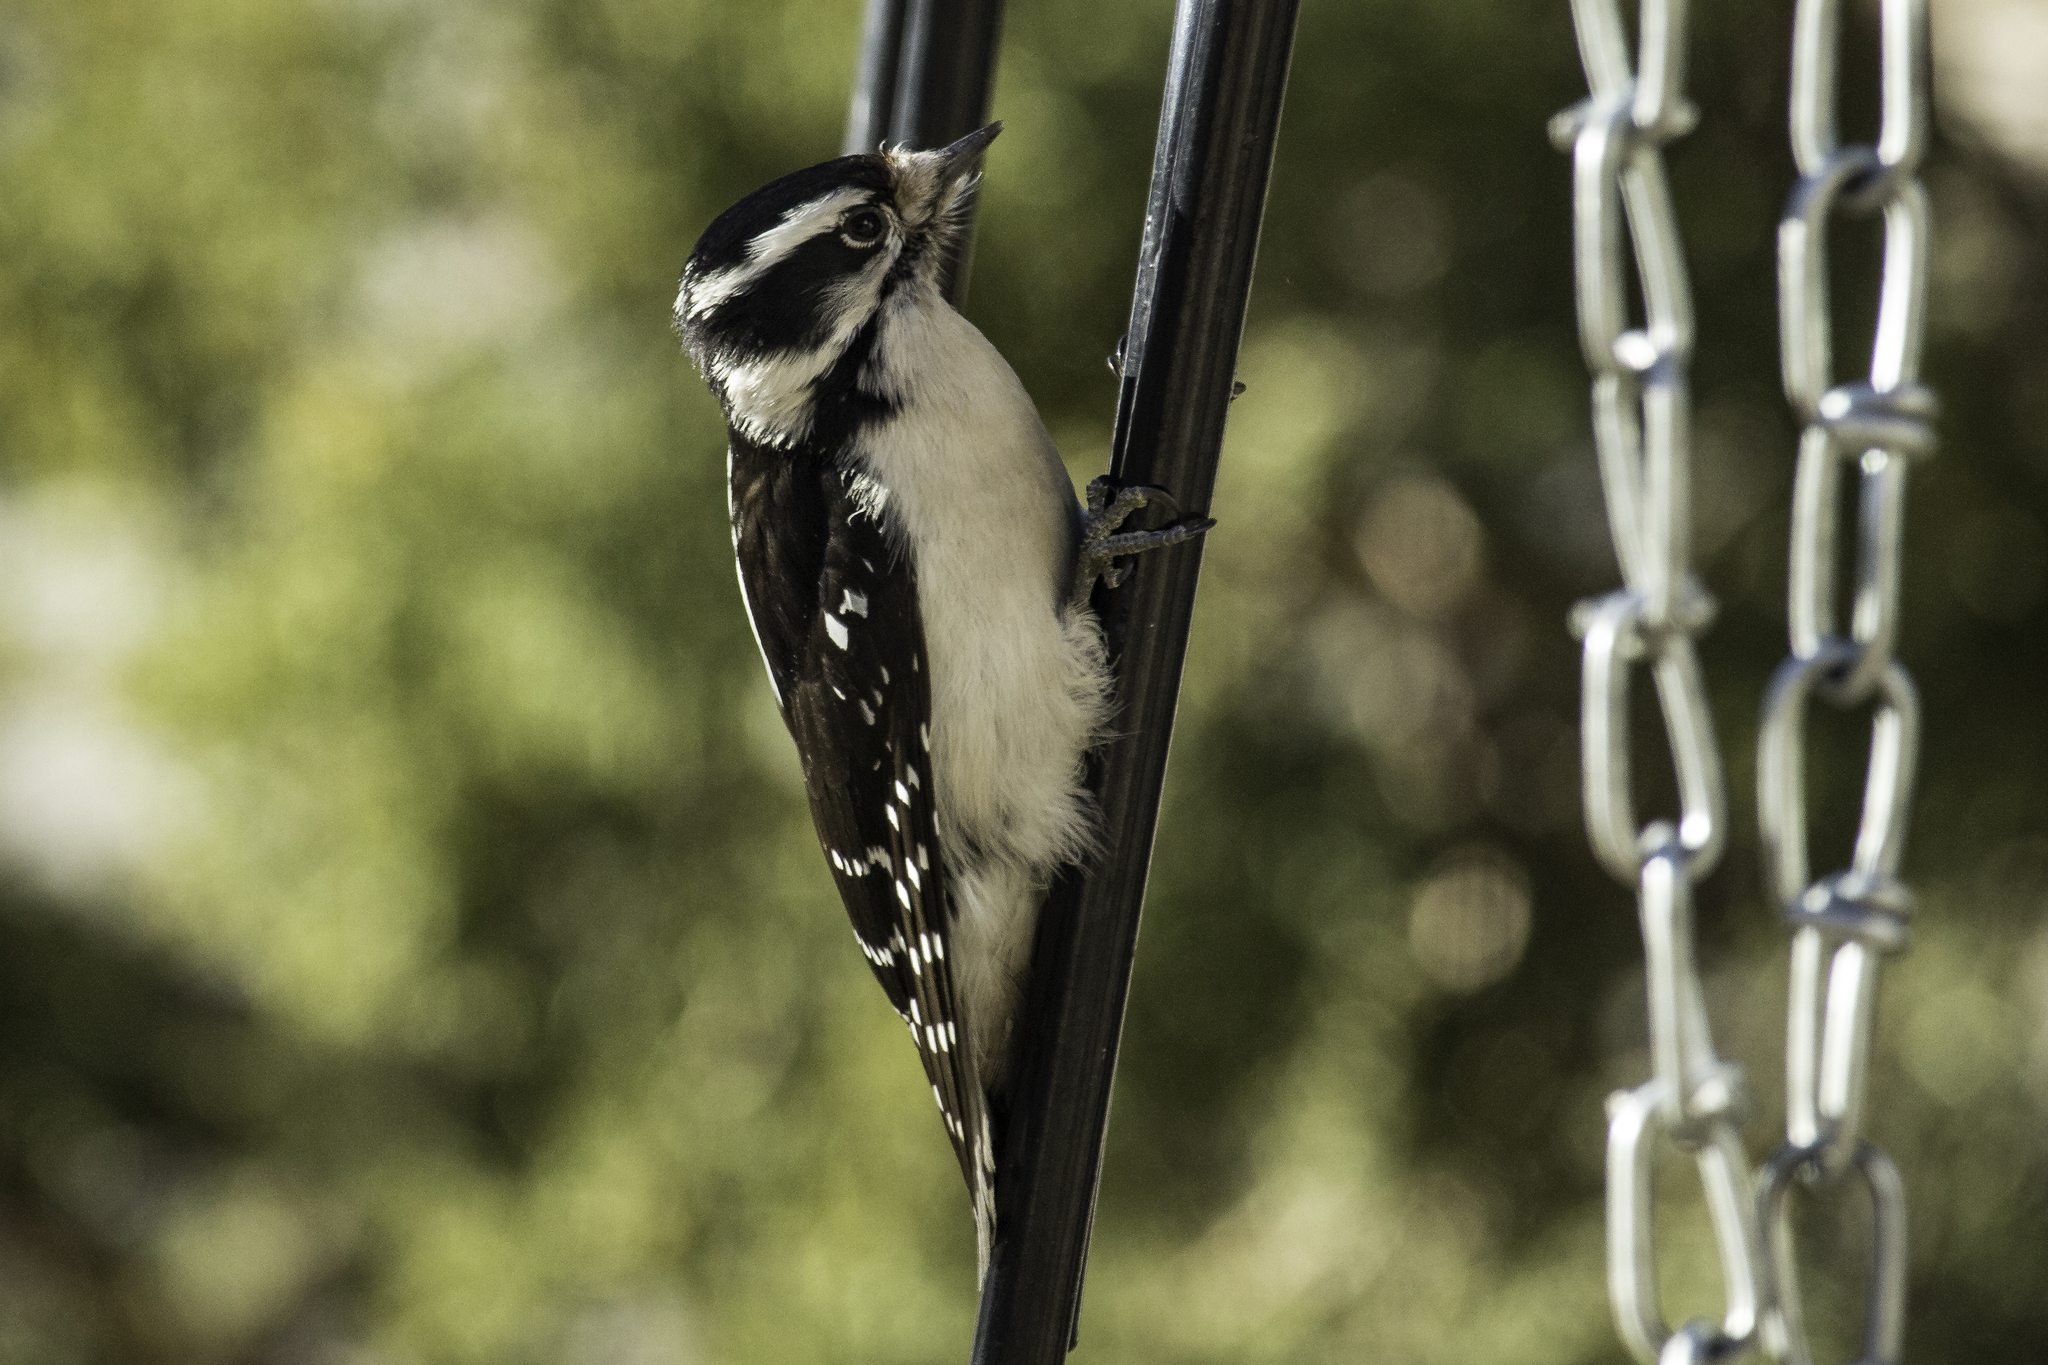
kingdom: Animalia
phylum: Chordata
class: Aves
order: Piciformes
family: Picidae
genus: Dryobates
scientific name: Dryobates pubescens
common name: Downy woodpecker
